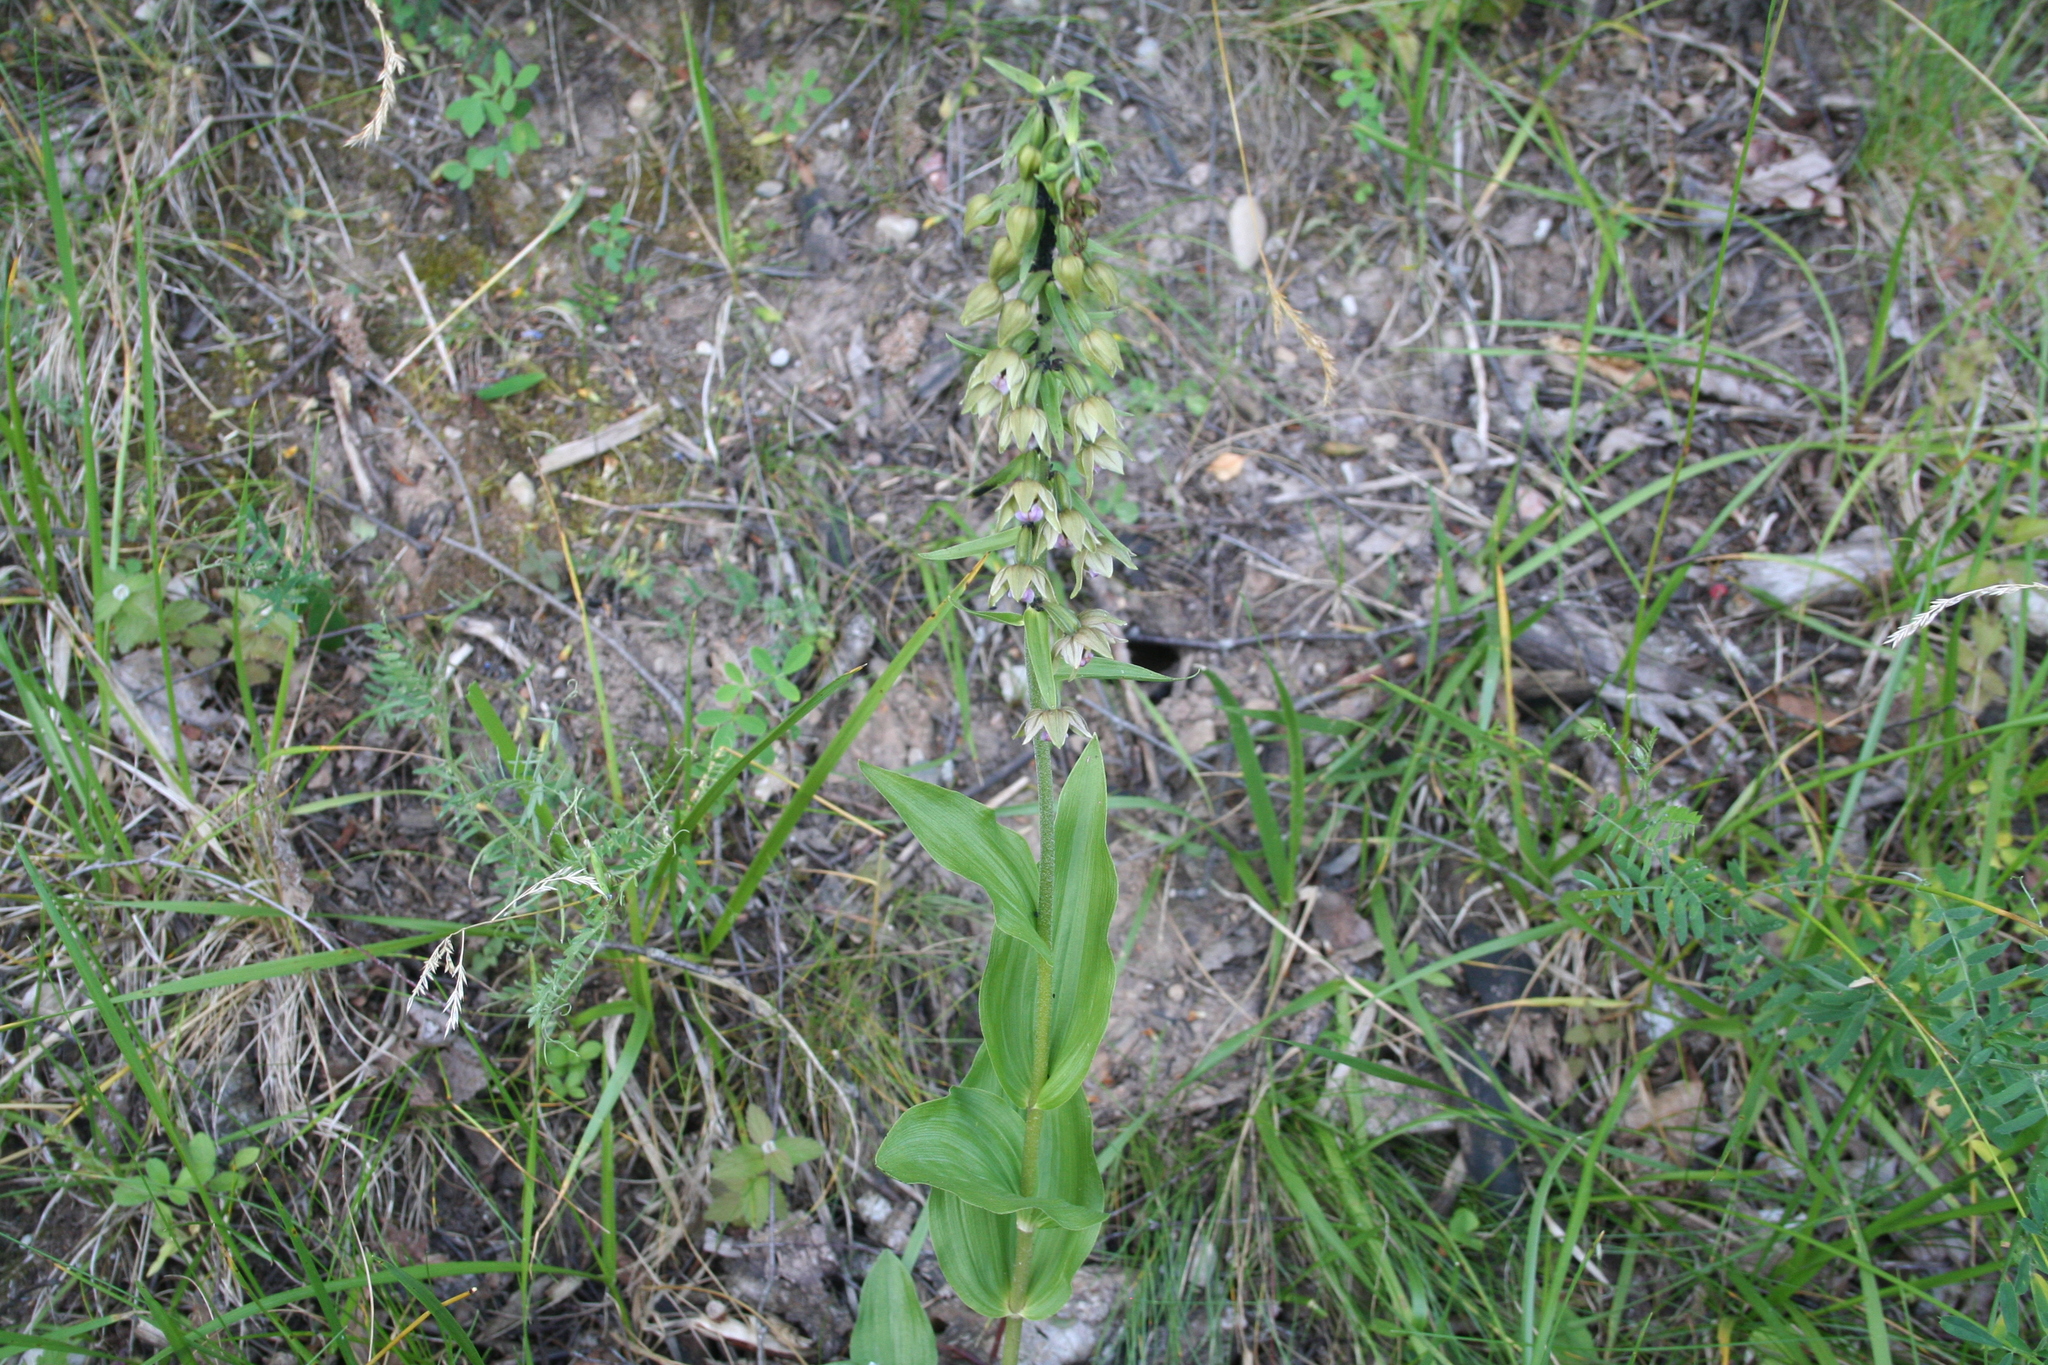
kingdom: Plantae
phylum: Tracheophyta
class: Liliopsida
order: Asparagales
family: Orchidaceae
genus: Epipactis
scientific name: Epipactis helleborine
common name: Broad-leaved helleborine
